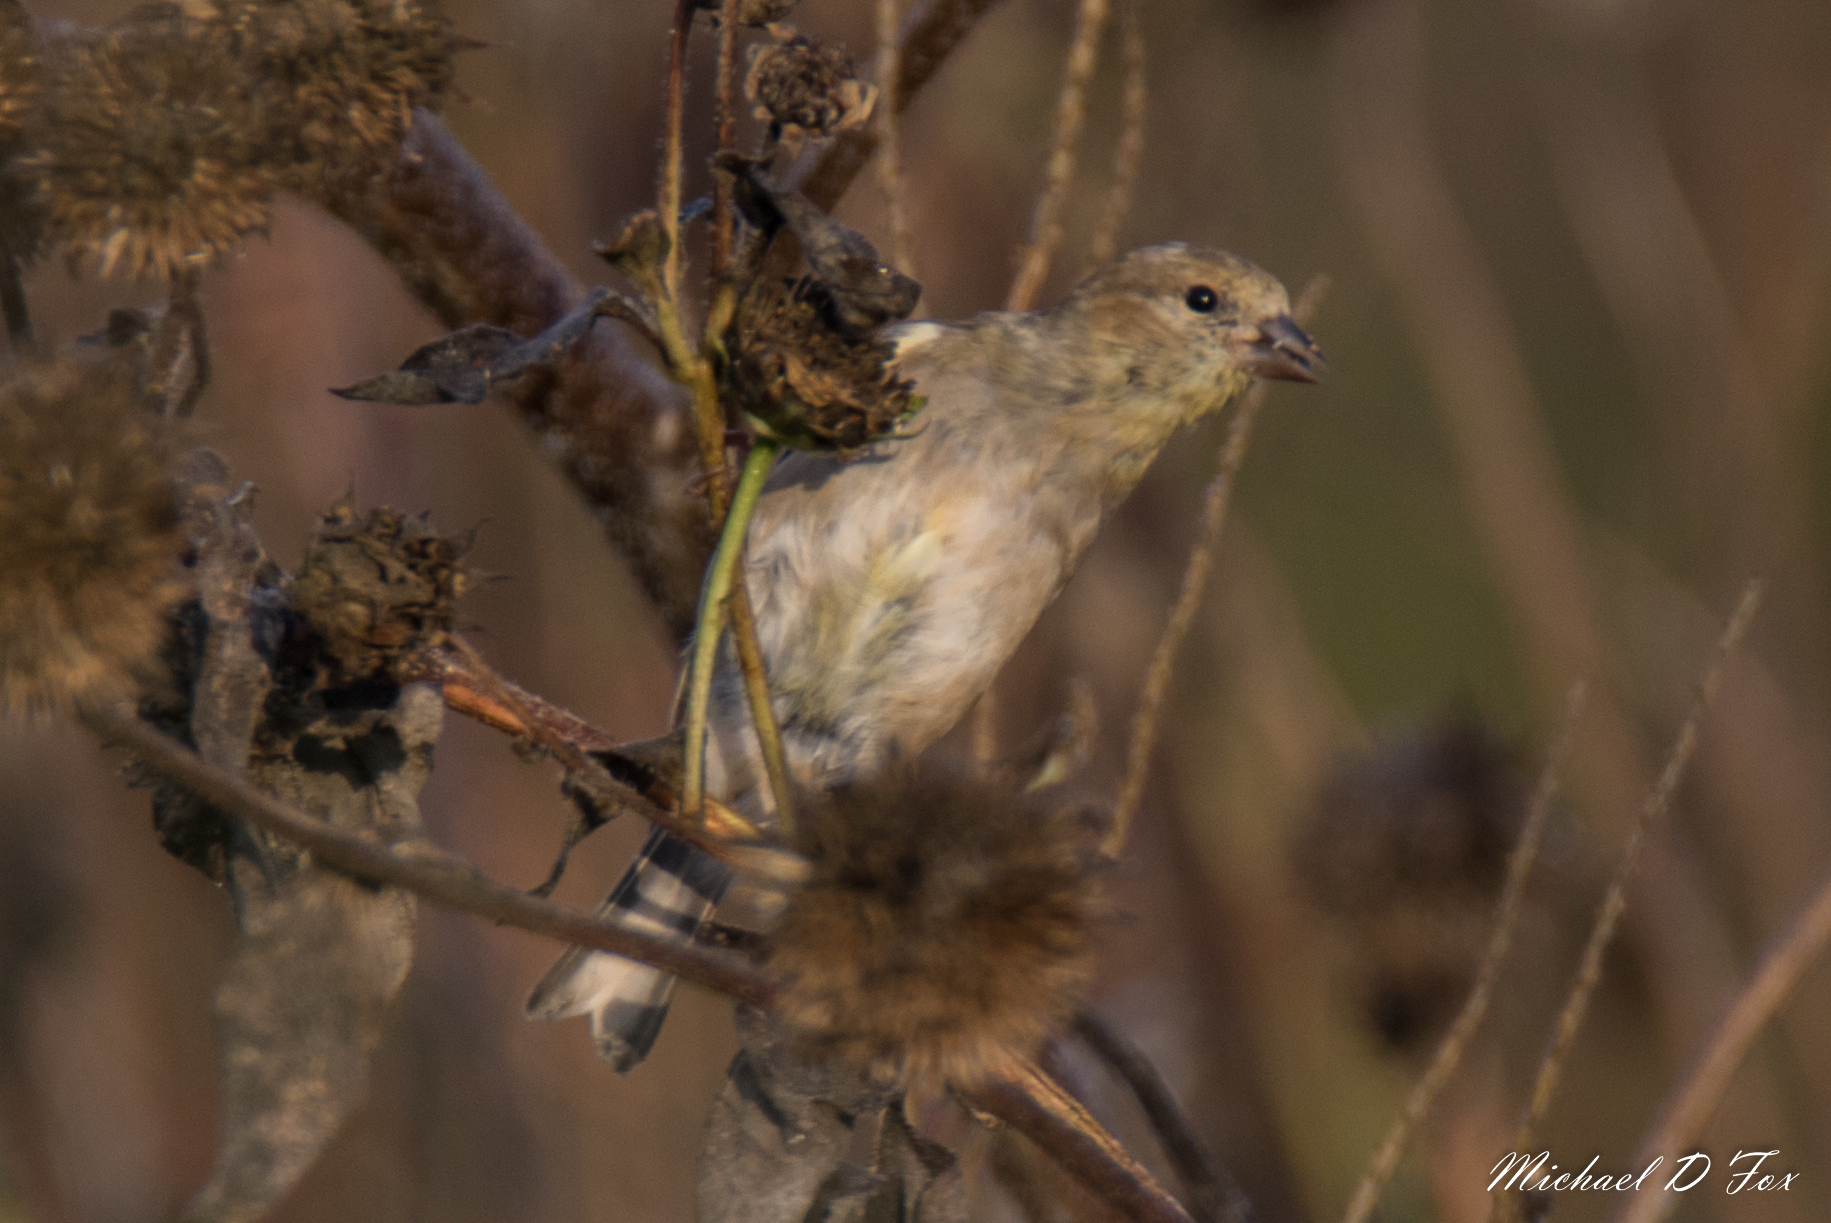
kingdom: Animalia
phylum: Chordata
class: Aves
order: Passeriformes
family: Fringillidae
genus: Spinus
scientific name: Spinus tristis
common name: American goldfinch
